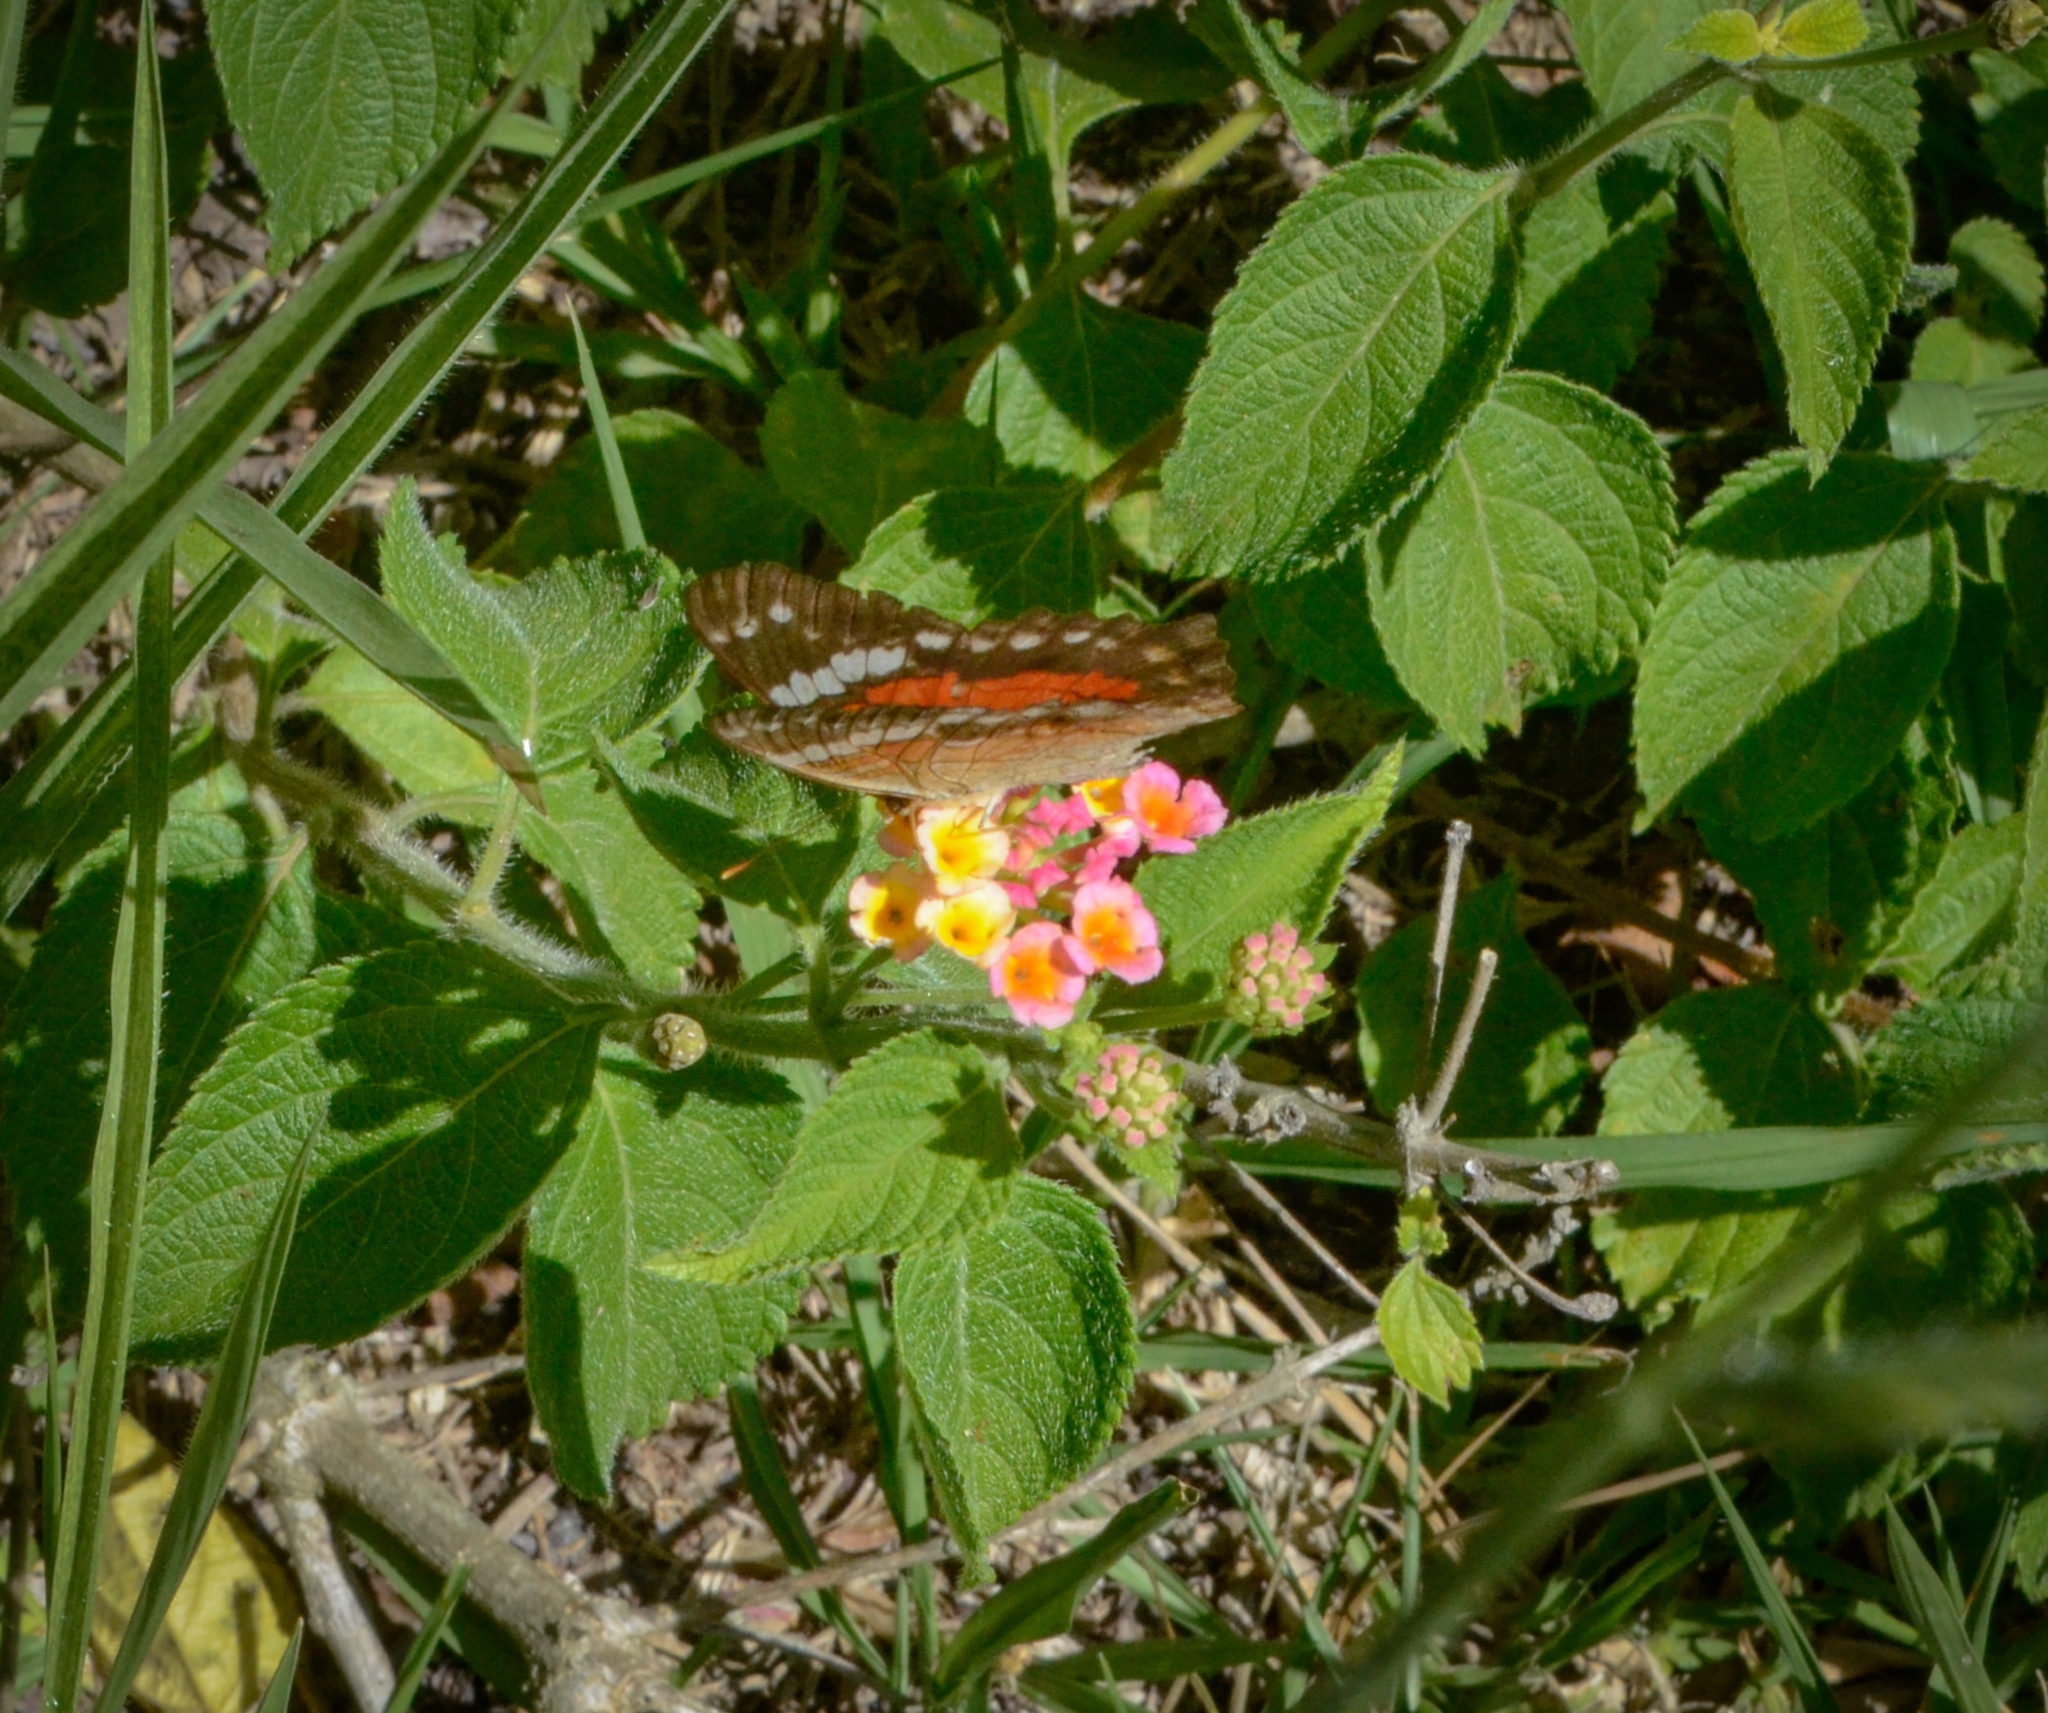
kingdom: Animalia
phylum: Arthropoda
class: Insecta
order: Lepidoptera
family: Nymphalidae
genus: Anartia
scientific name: Anartia amathea
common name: Red peacock
